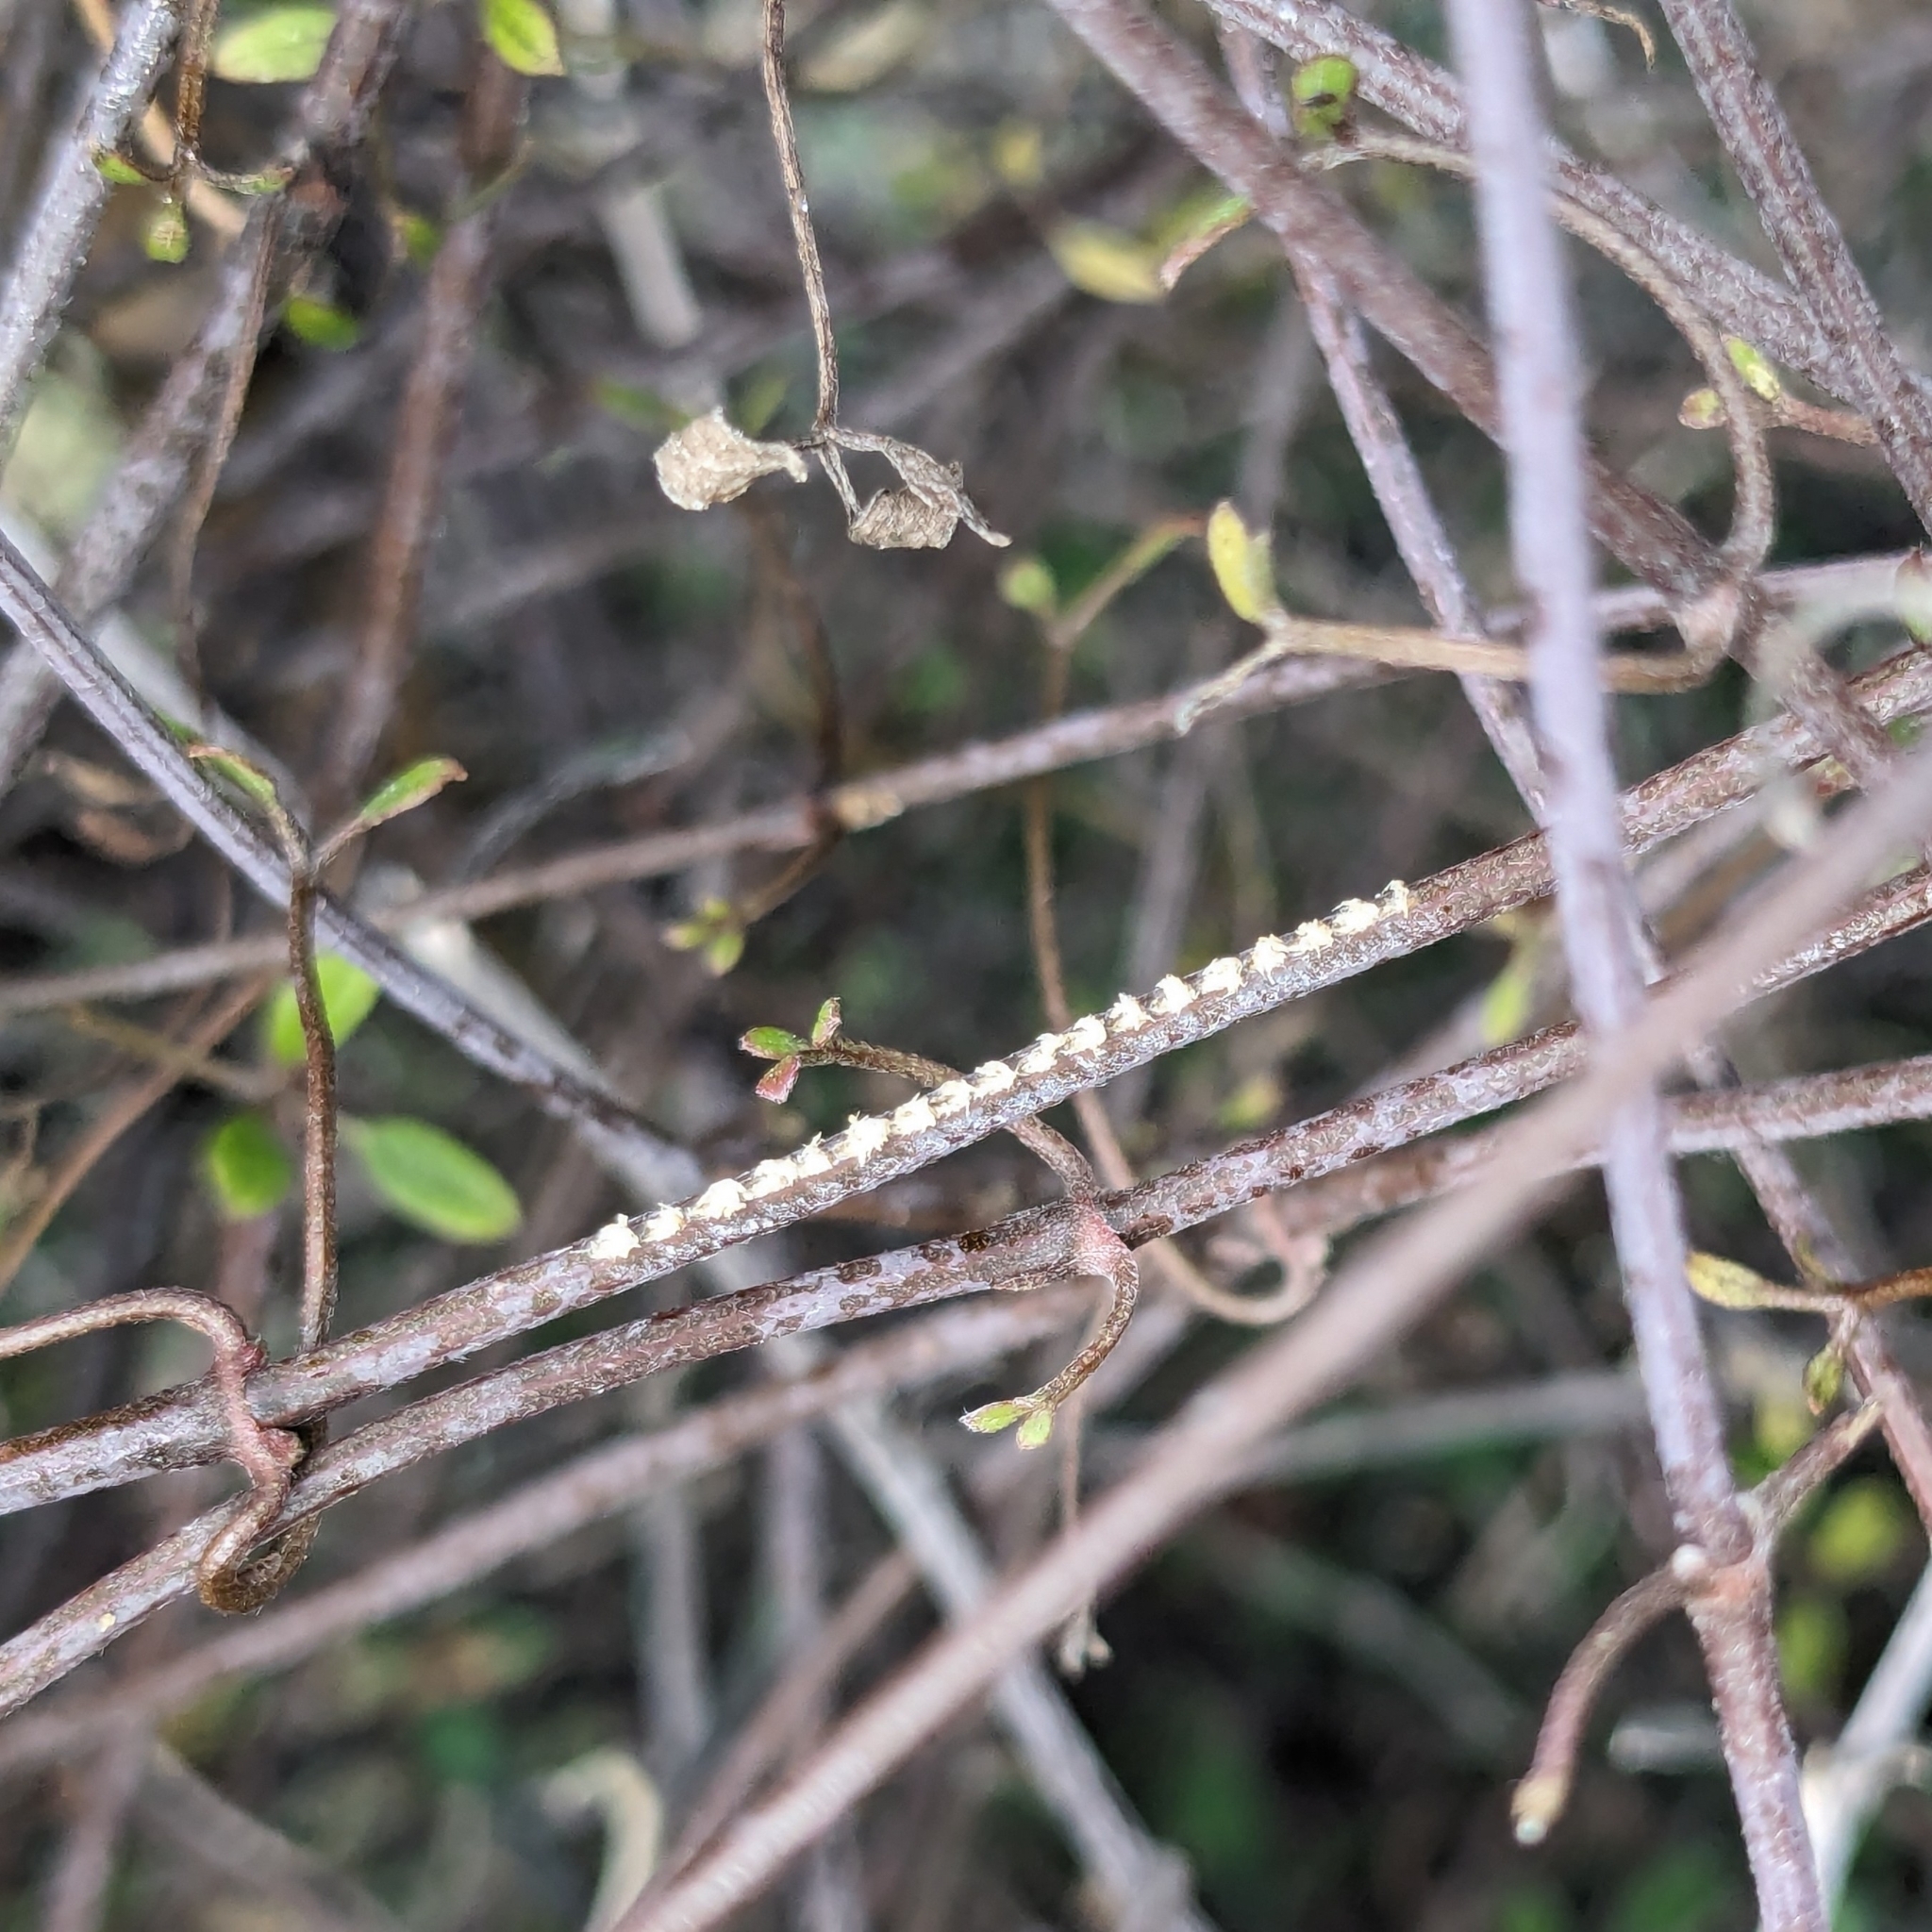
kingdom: Animalia
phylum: Arthropoda
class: Insecta
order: Hemiptera
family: Ricaniidae
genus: Scolypopa
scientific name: Scolypopa australis
